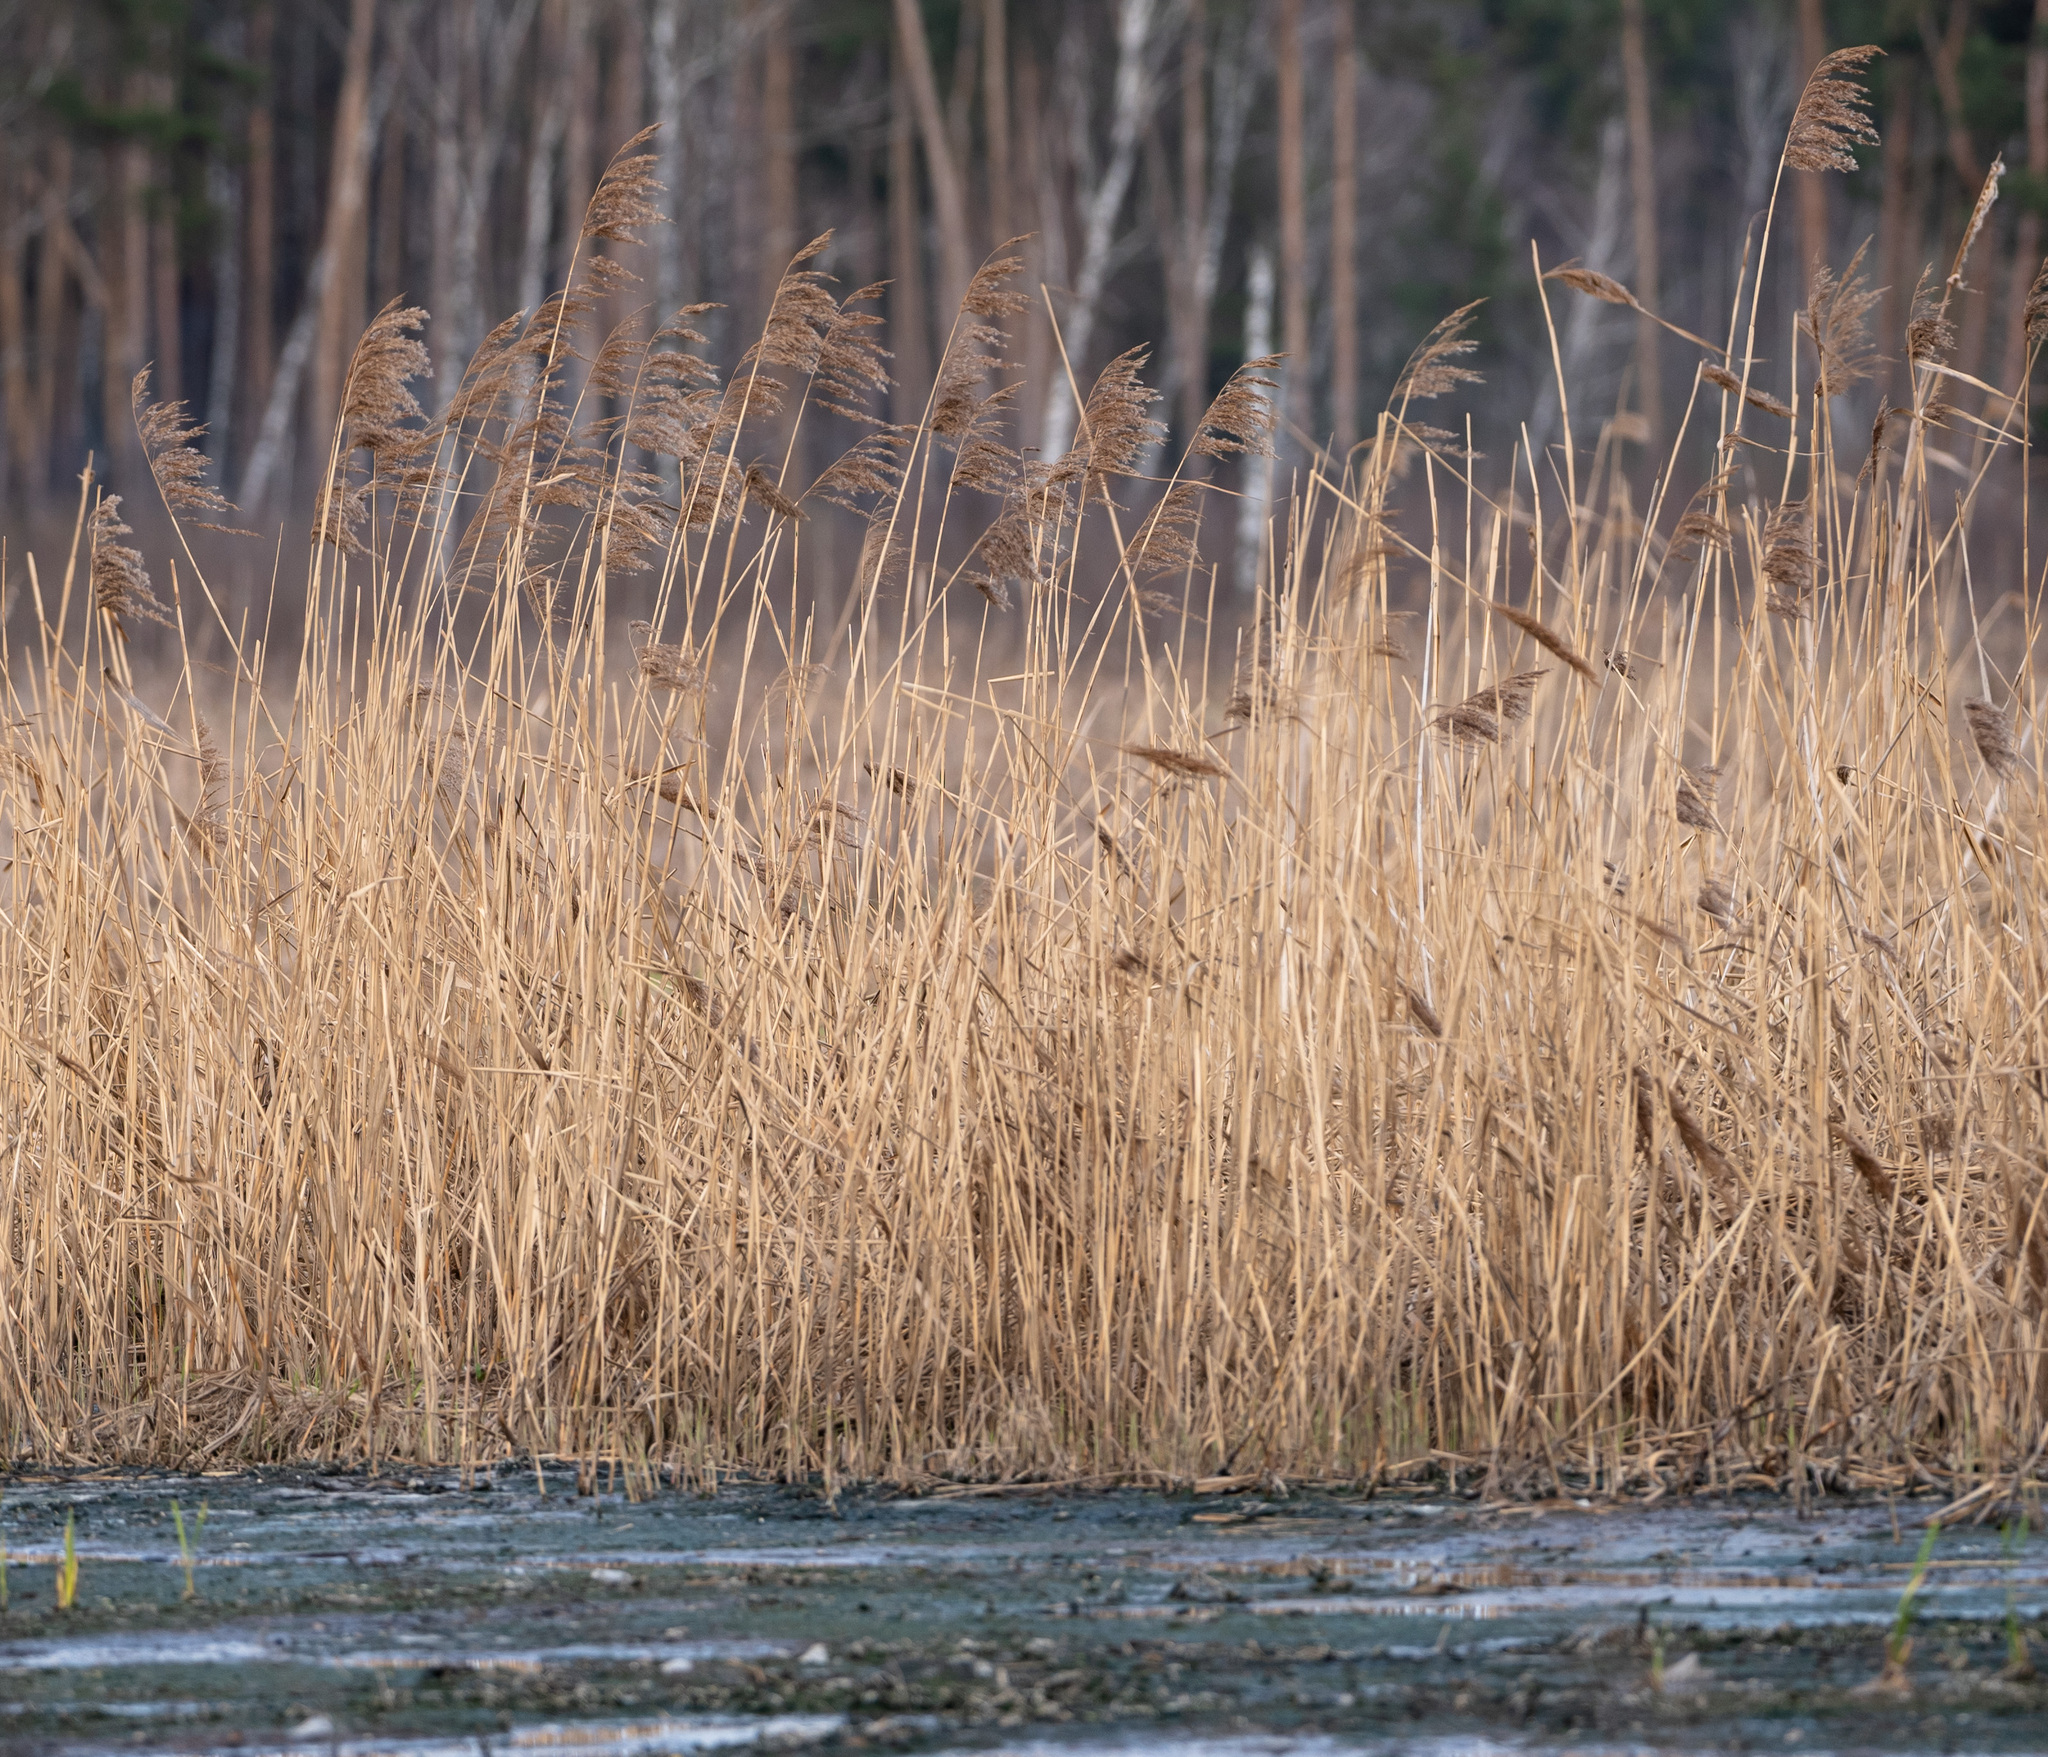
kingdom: Plantae
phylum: Tracheophyta
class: Liliopsida
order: Poales
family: Poaceae
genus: Phragmites
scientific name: Phragmites australis
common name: Common reed
